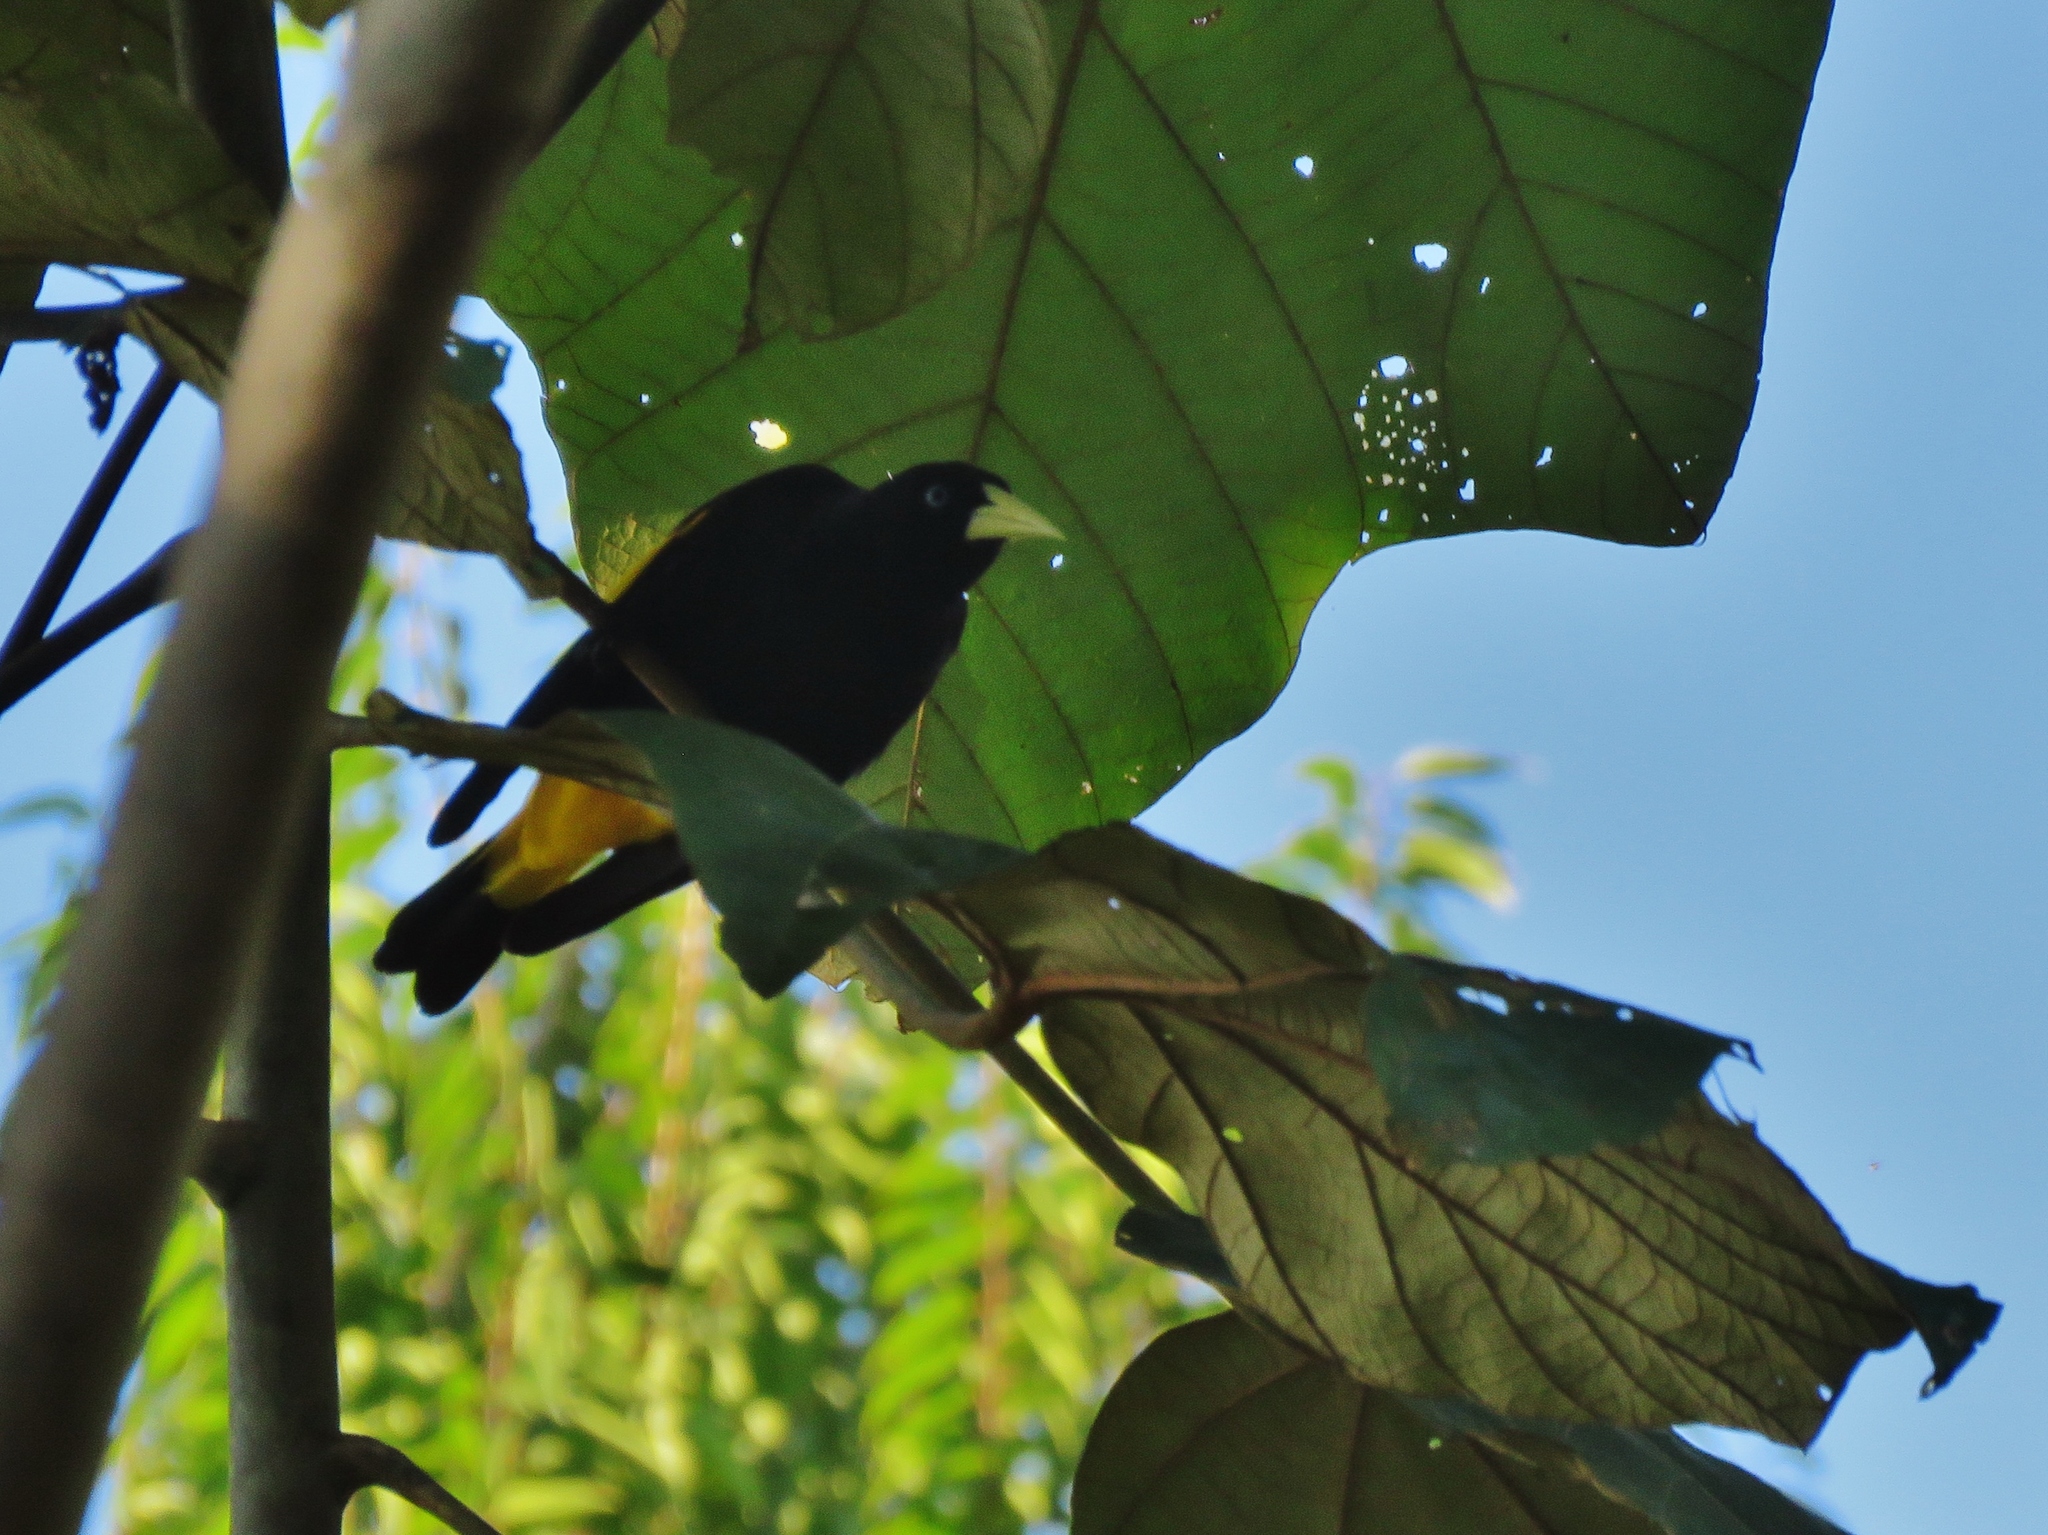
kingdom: Animalia
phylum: Chordata
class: Aves
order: Passeriformes
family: Icteridae
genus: Cacicus
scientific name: Cacicus cela
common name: Yellow-rumped cacique
